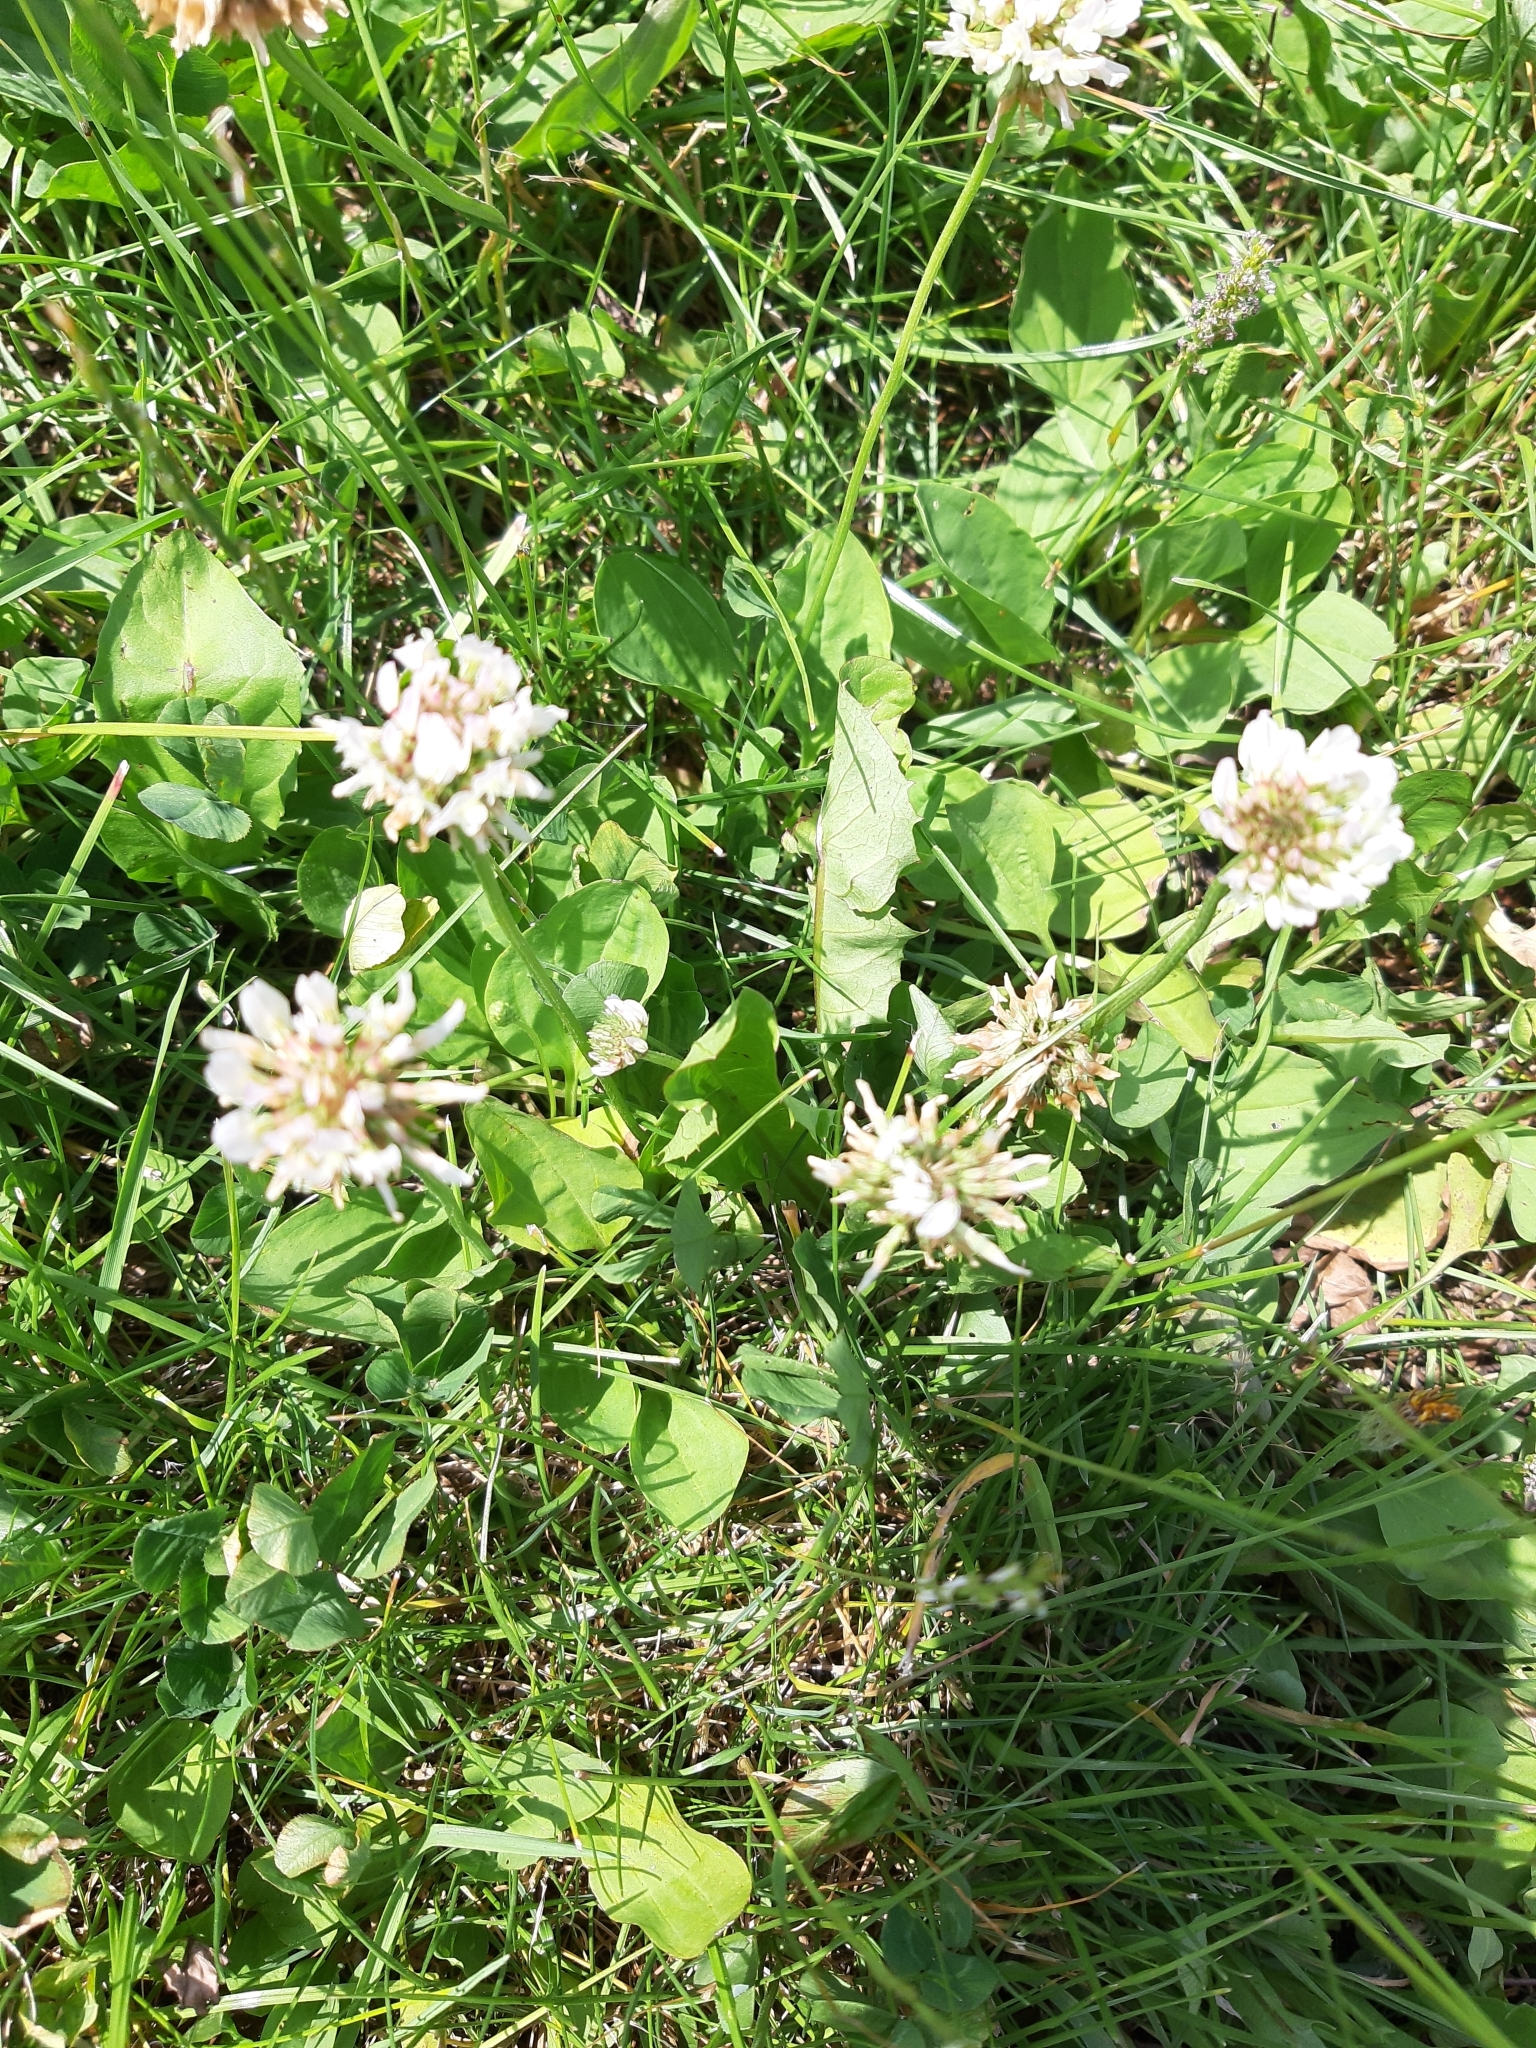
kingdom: Plantae
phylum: Tracheophyta
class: Magnoliopsida
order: Fabales
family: Fabaceae
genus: Trifolium
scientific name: Trifolium repens
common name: White clover
